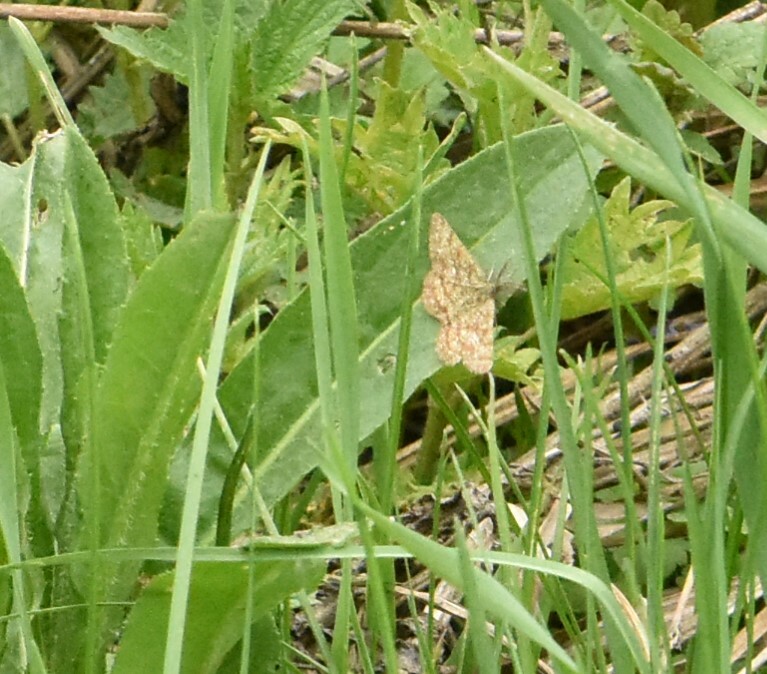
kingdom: Animalia
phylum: Arthropoda
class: Insecta
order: Lepidoptera
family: Geometridae
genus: Ematurga
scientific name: Ematurga atomaria
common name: Common heath
